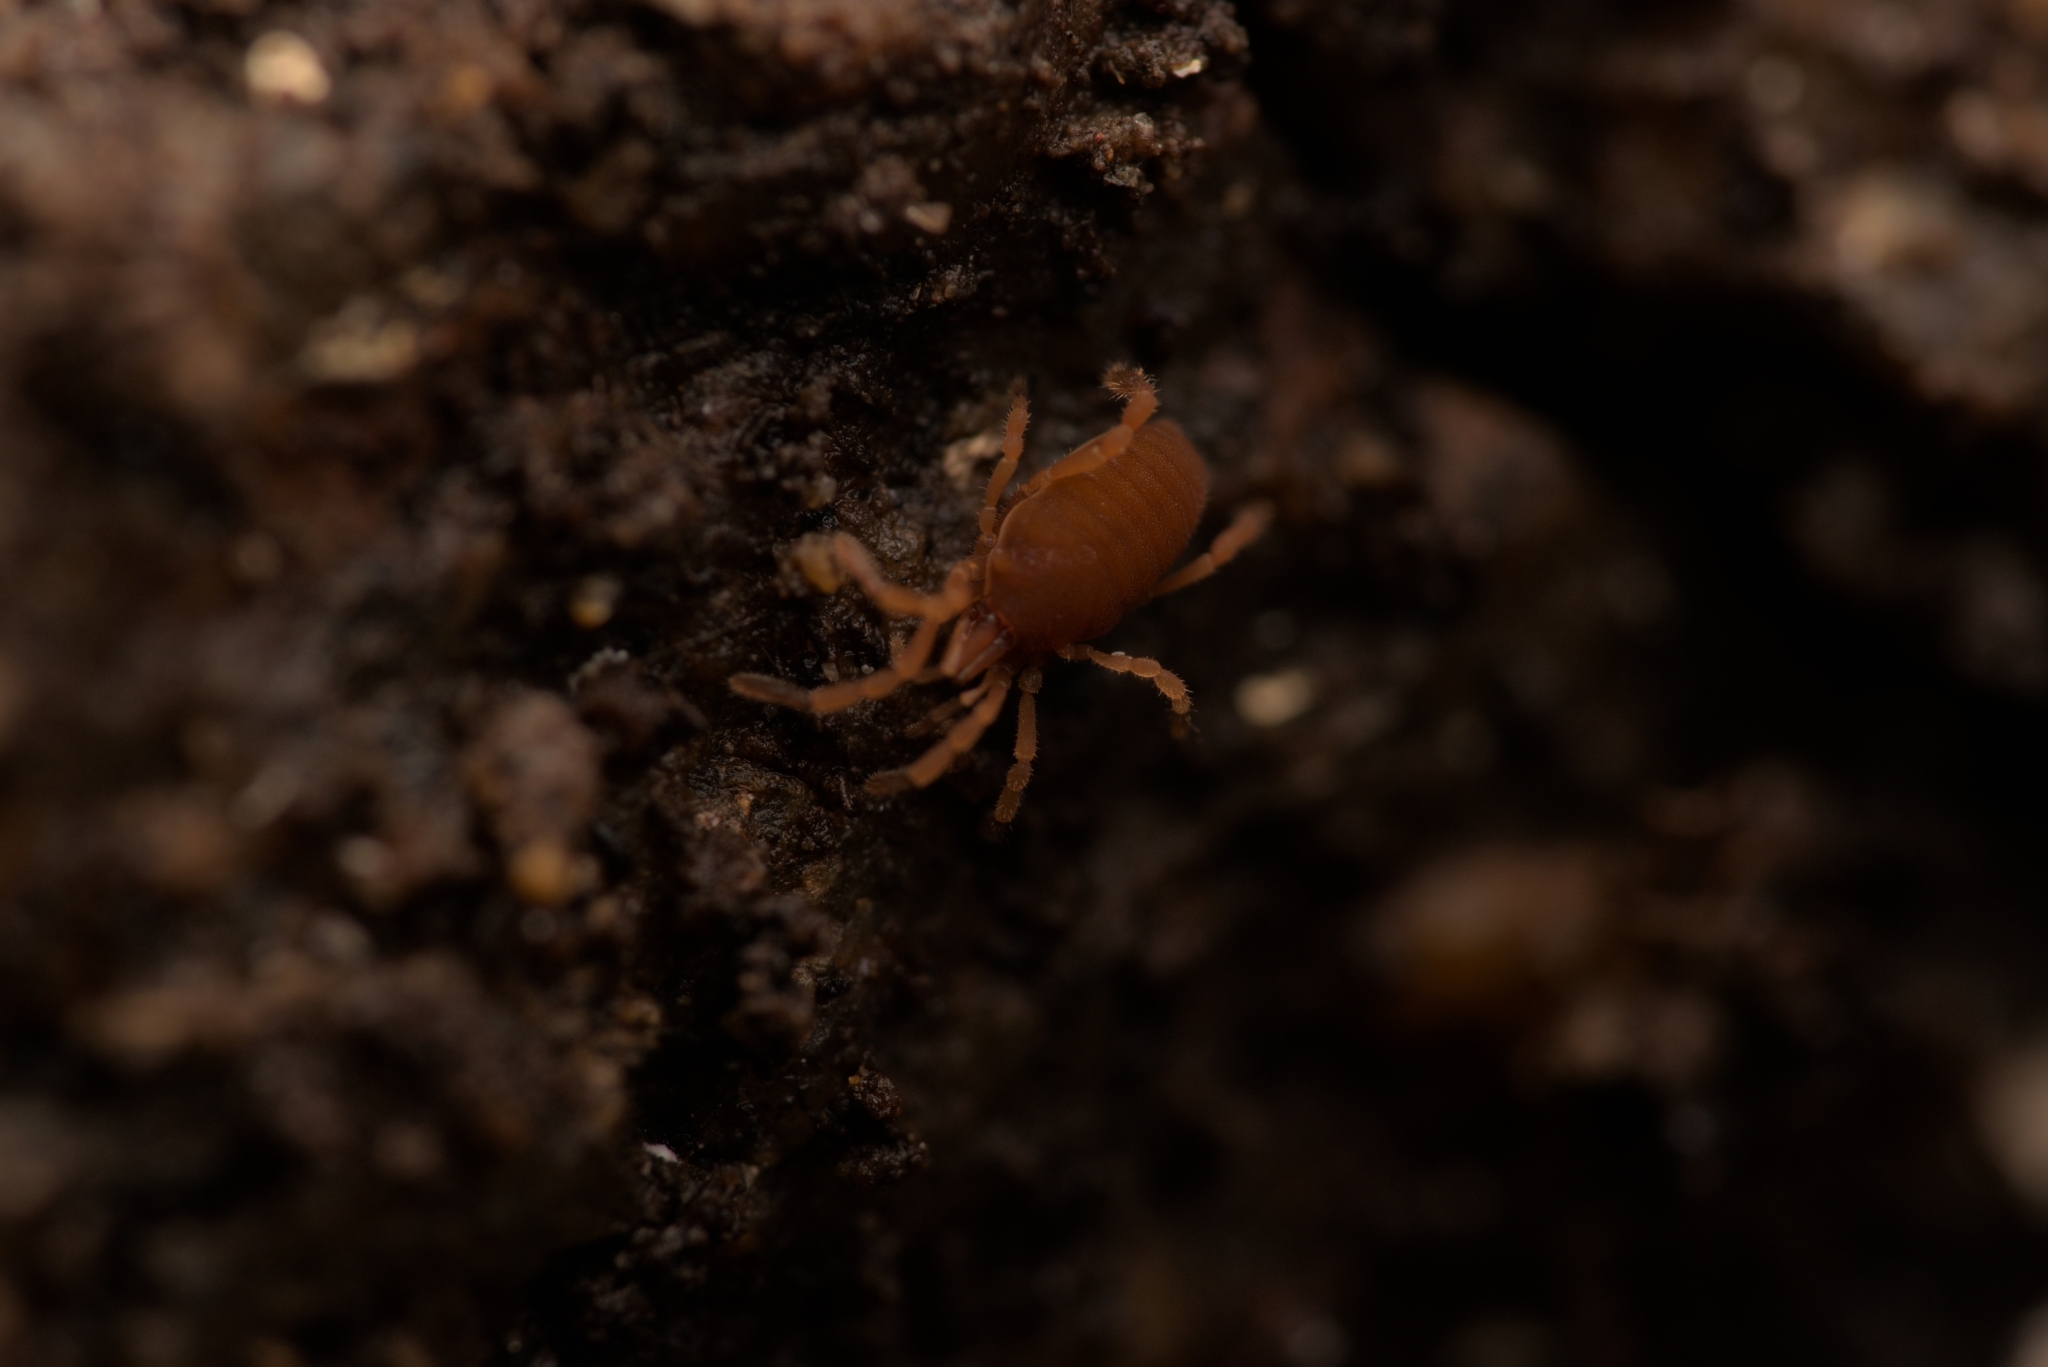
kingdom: Animalia
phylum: Arthropoda
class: Arachnida
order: Opiliones
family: Sironidae
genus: Siro
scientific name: Siro rubens
